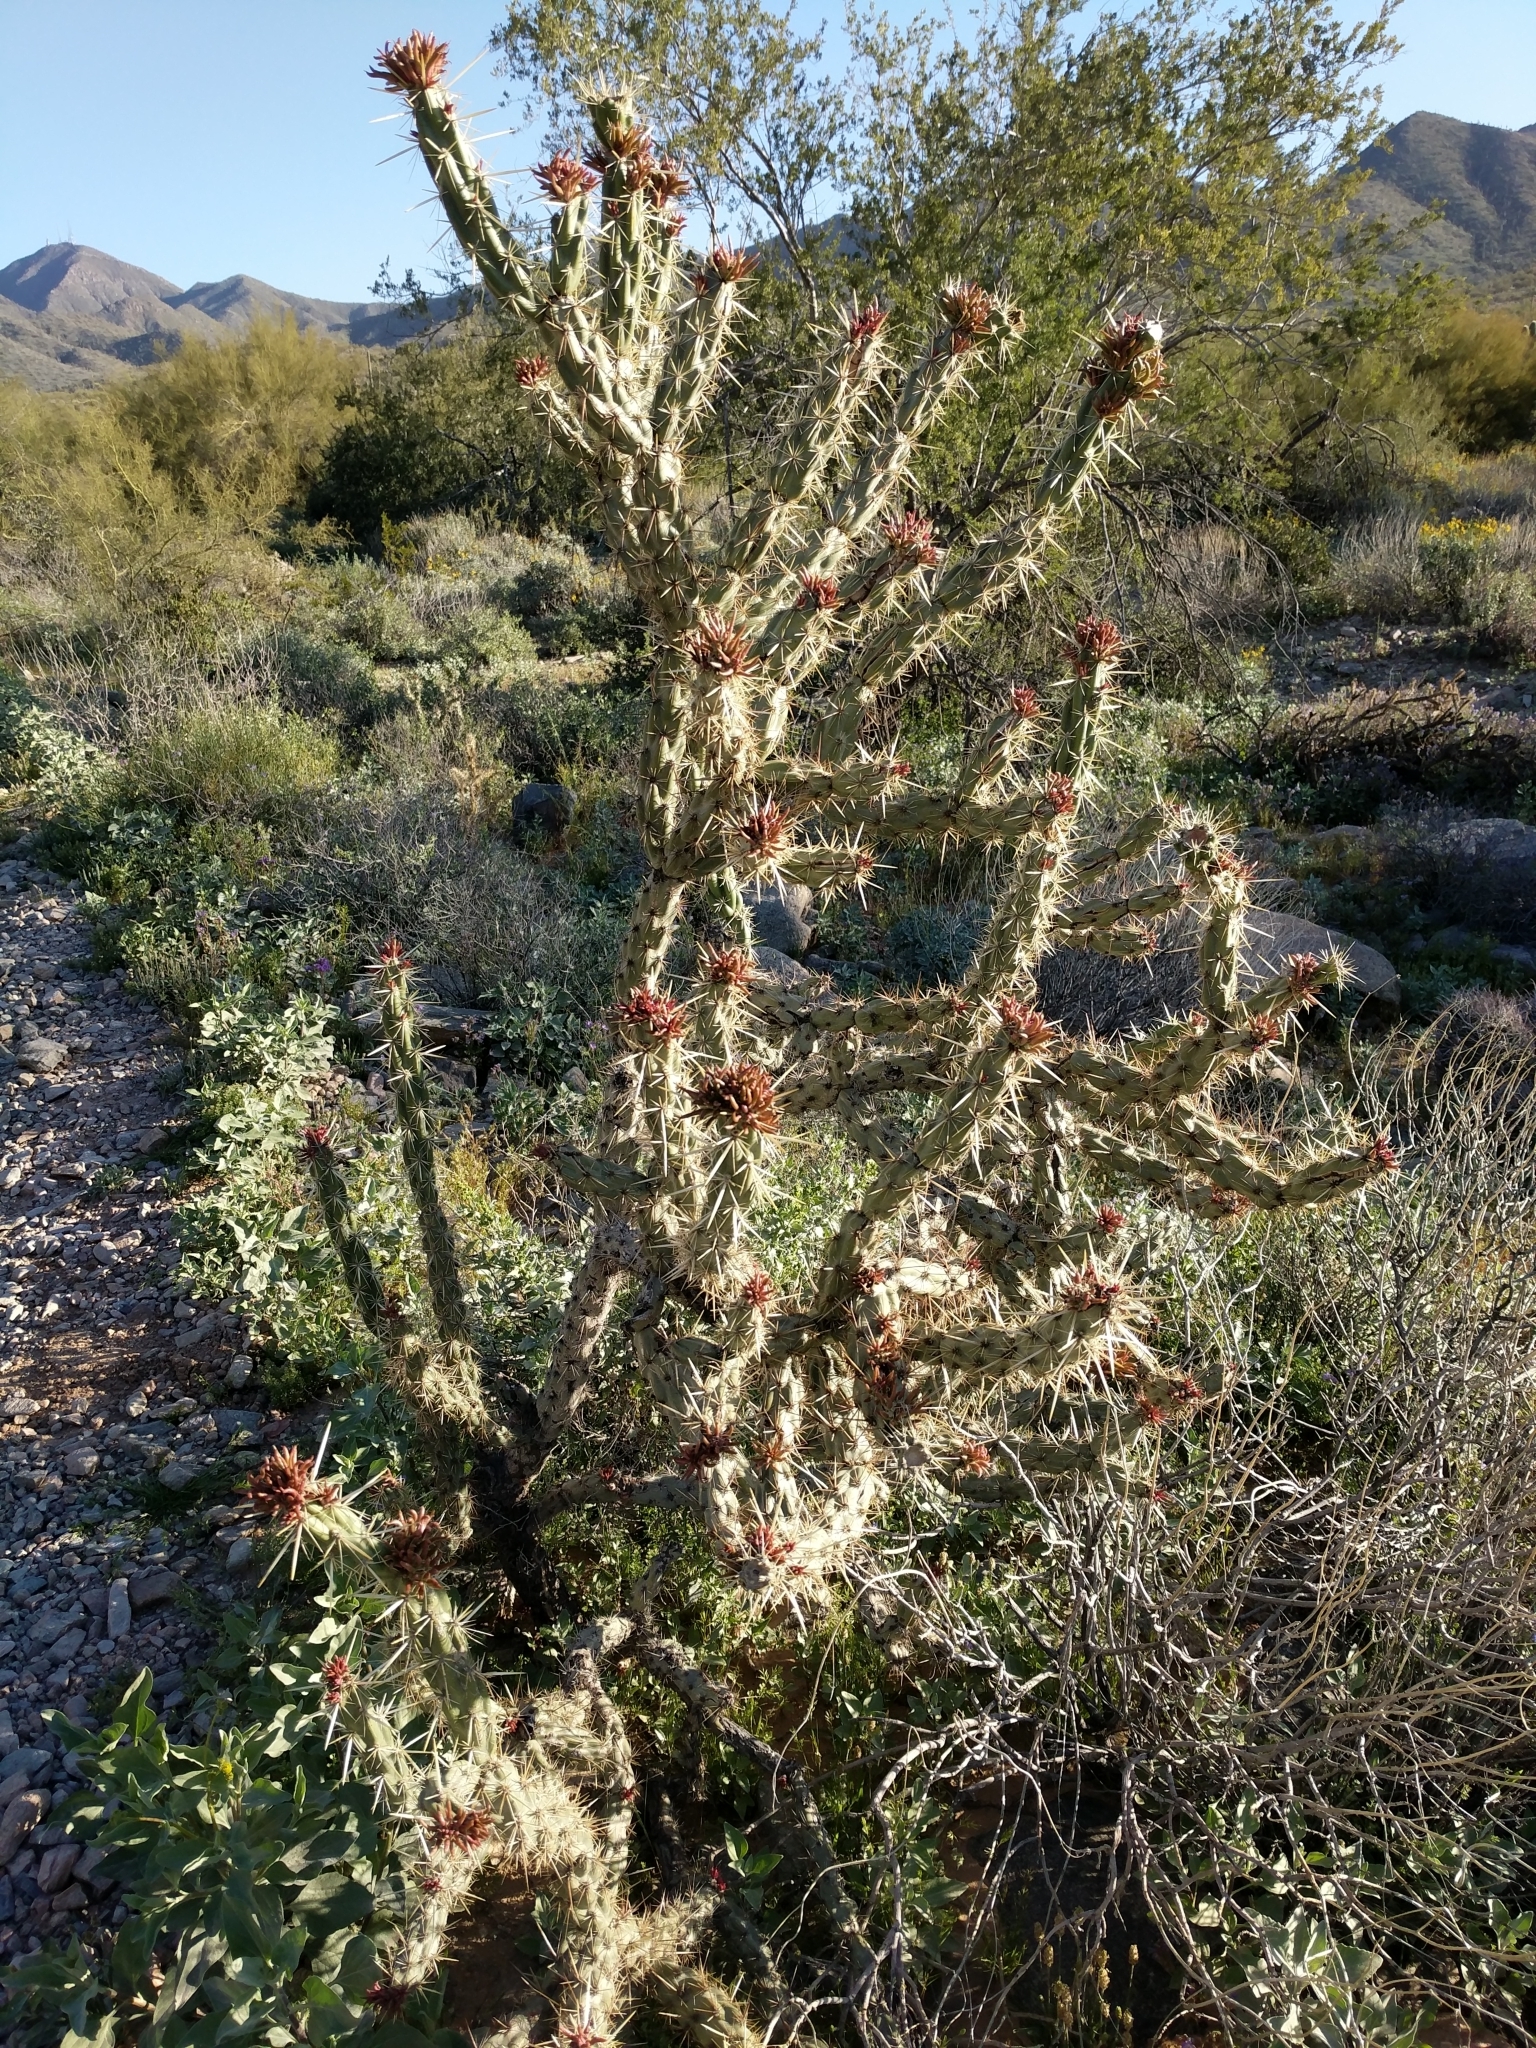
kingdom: Plantae
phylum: Tracheophyta
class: Magnoliopsida
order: Caryophyllales
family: Cactaceae
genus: Cylindropuntia
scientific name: Cylindropuntia acanthocarpa
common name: Buckhorn cholla
